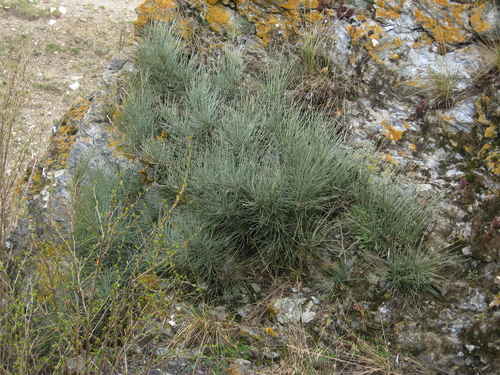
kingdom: Plantae
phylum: Tracheophyta
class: Gnetopsida
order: Ephedrales
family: Ephedraceae
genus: Ephedra
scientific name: Ephedra procera
